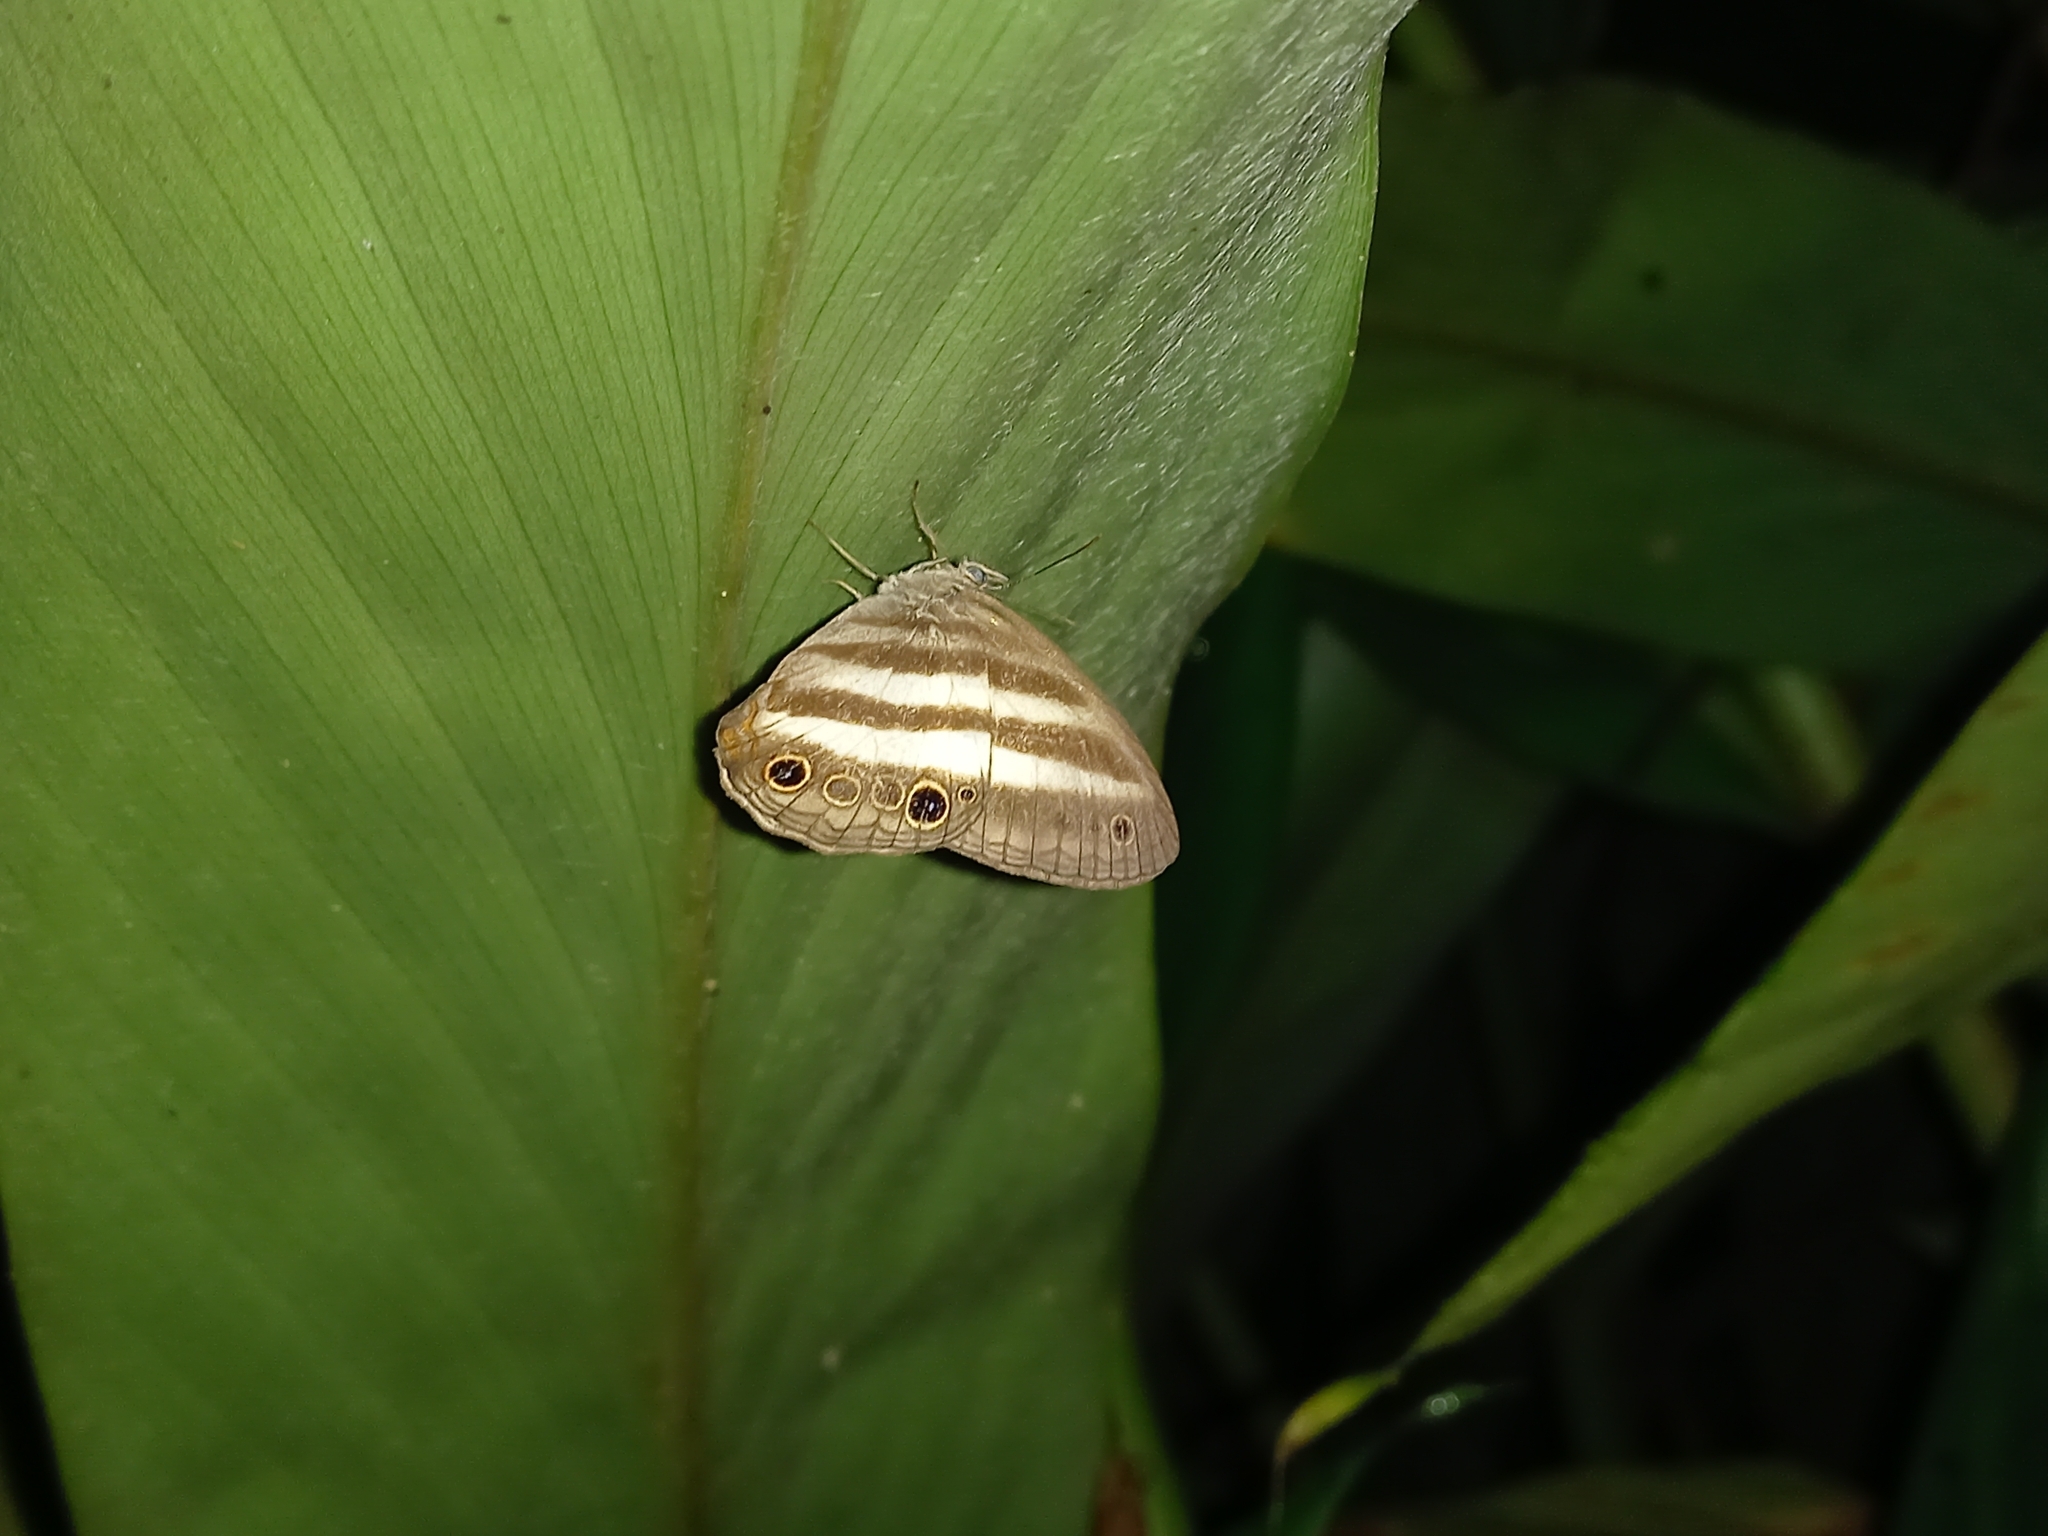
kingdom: Animalia
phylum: Arthropoda
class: Insecta
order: Lepidoptera
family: Nymphalidae
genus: Pareuptychia
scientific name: Pareuptychia hesione
